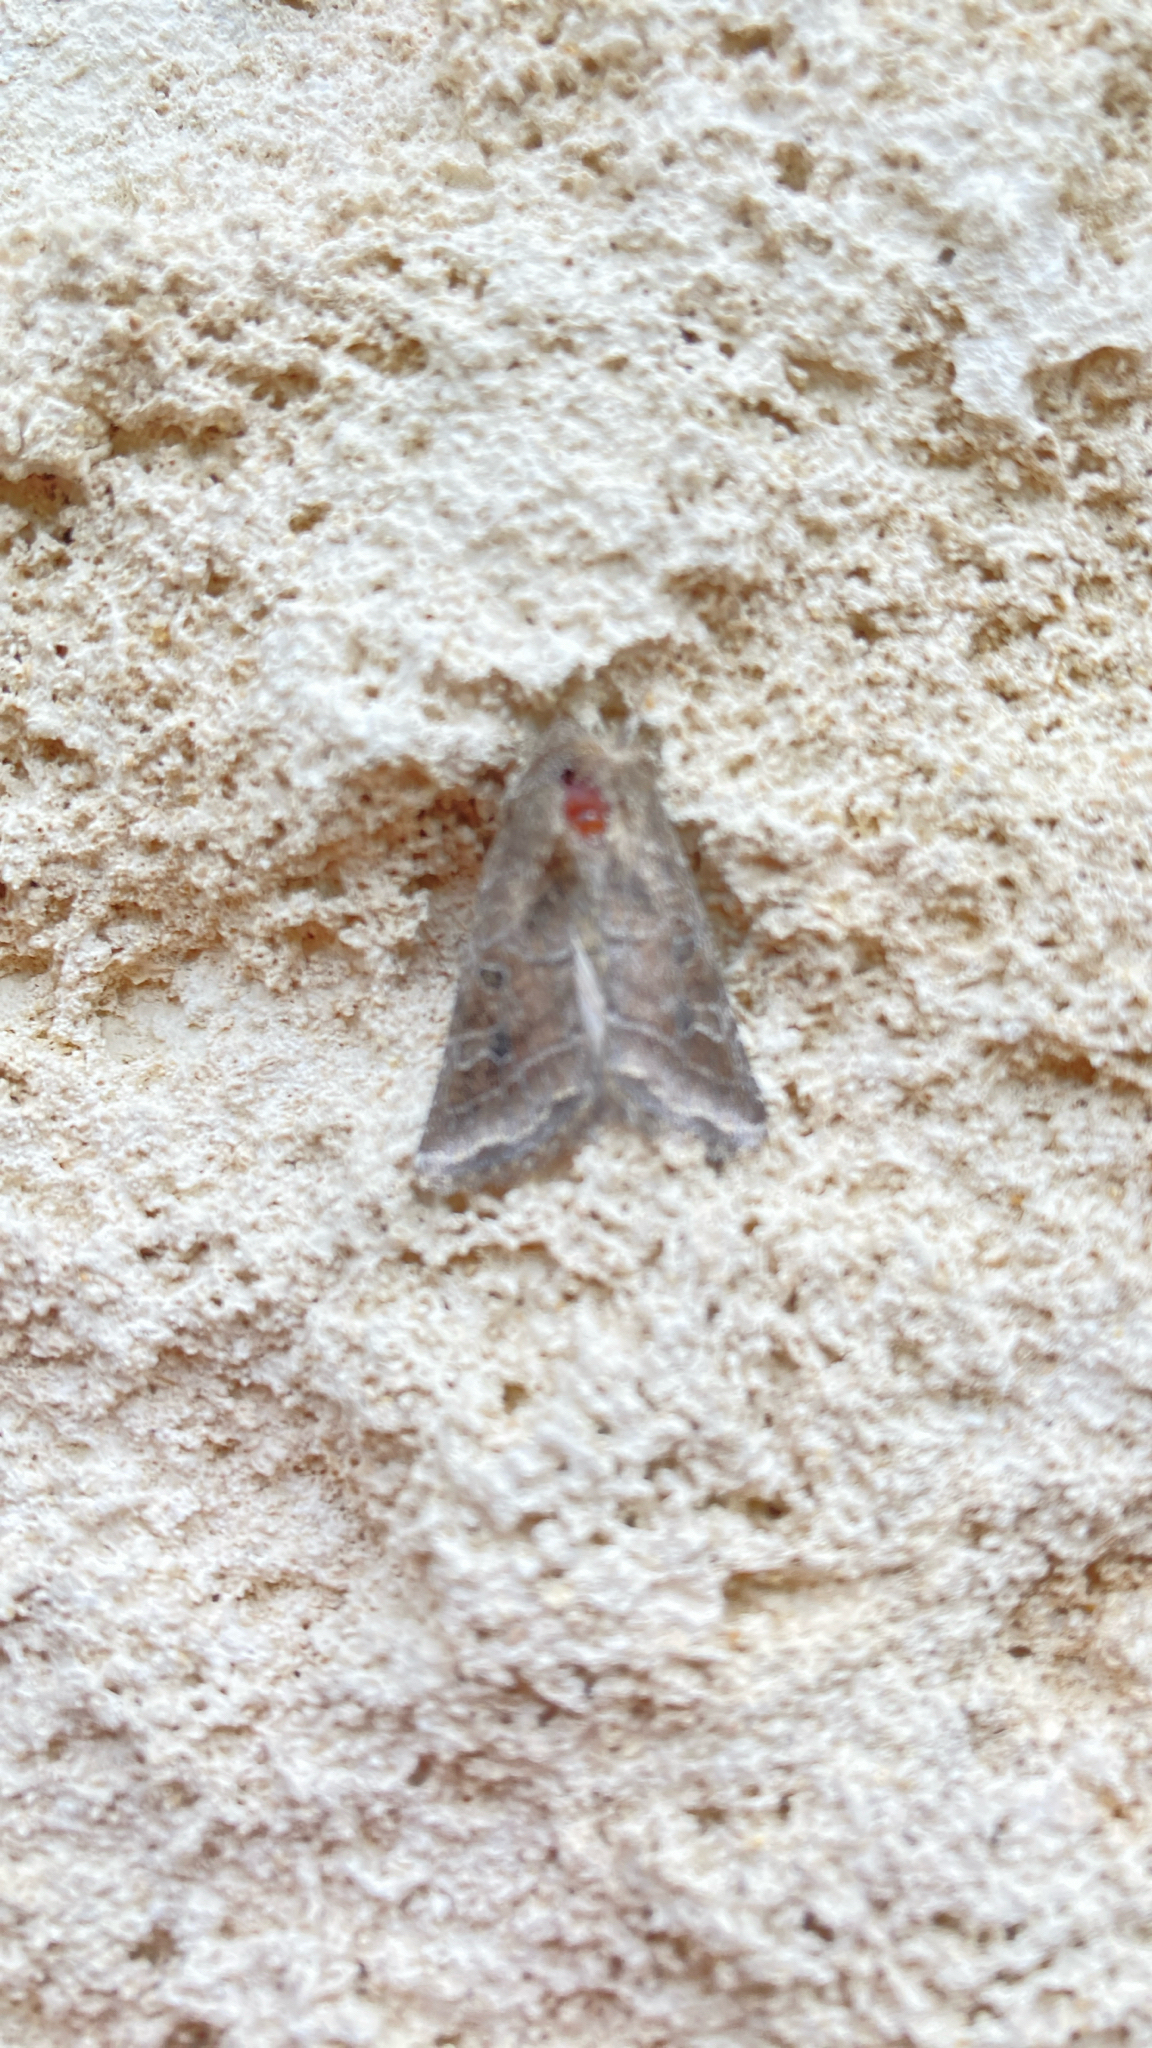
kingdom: Animalia
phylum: Arthropoda
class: Insecta
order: Lepidoptera
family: Noctuidae
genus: Lacinipolia
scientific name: Lacinipolia erecta
